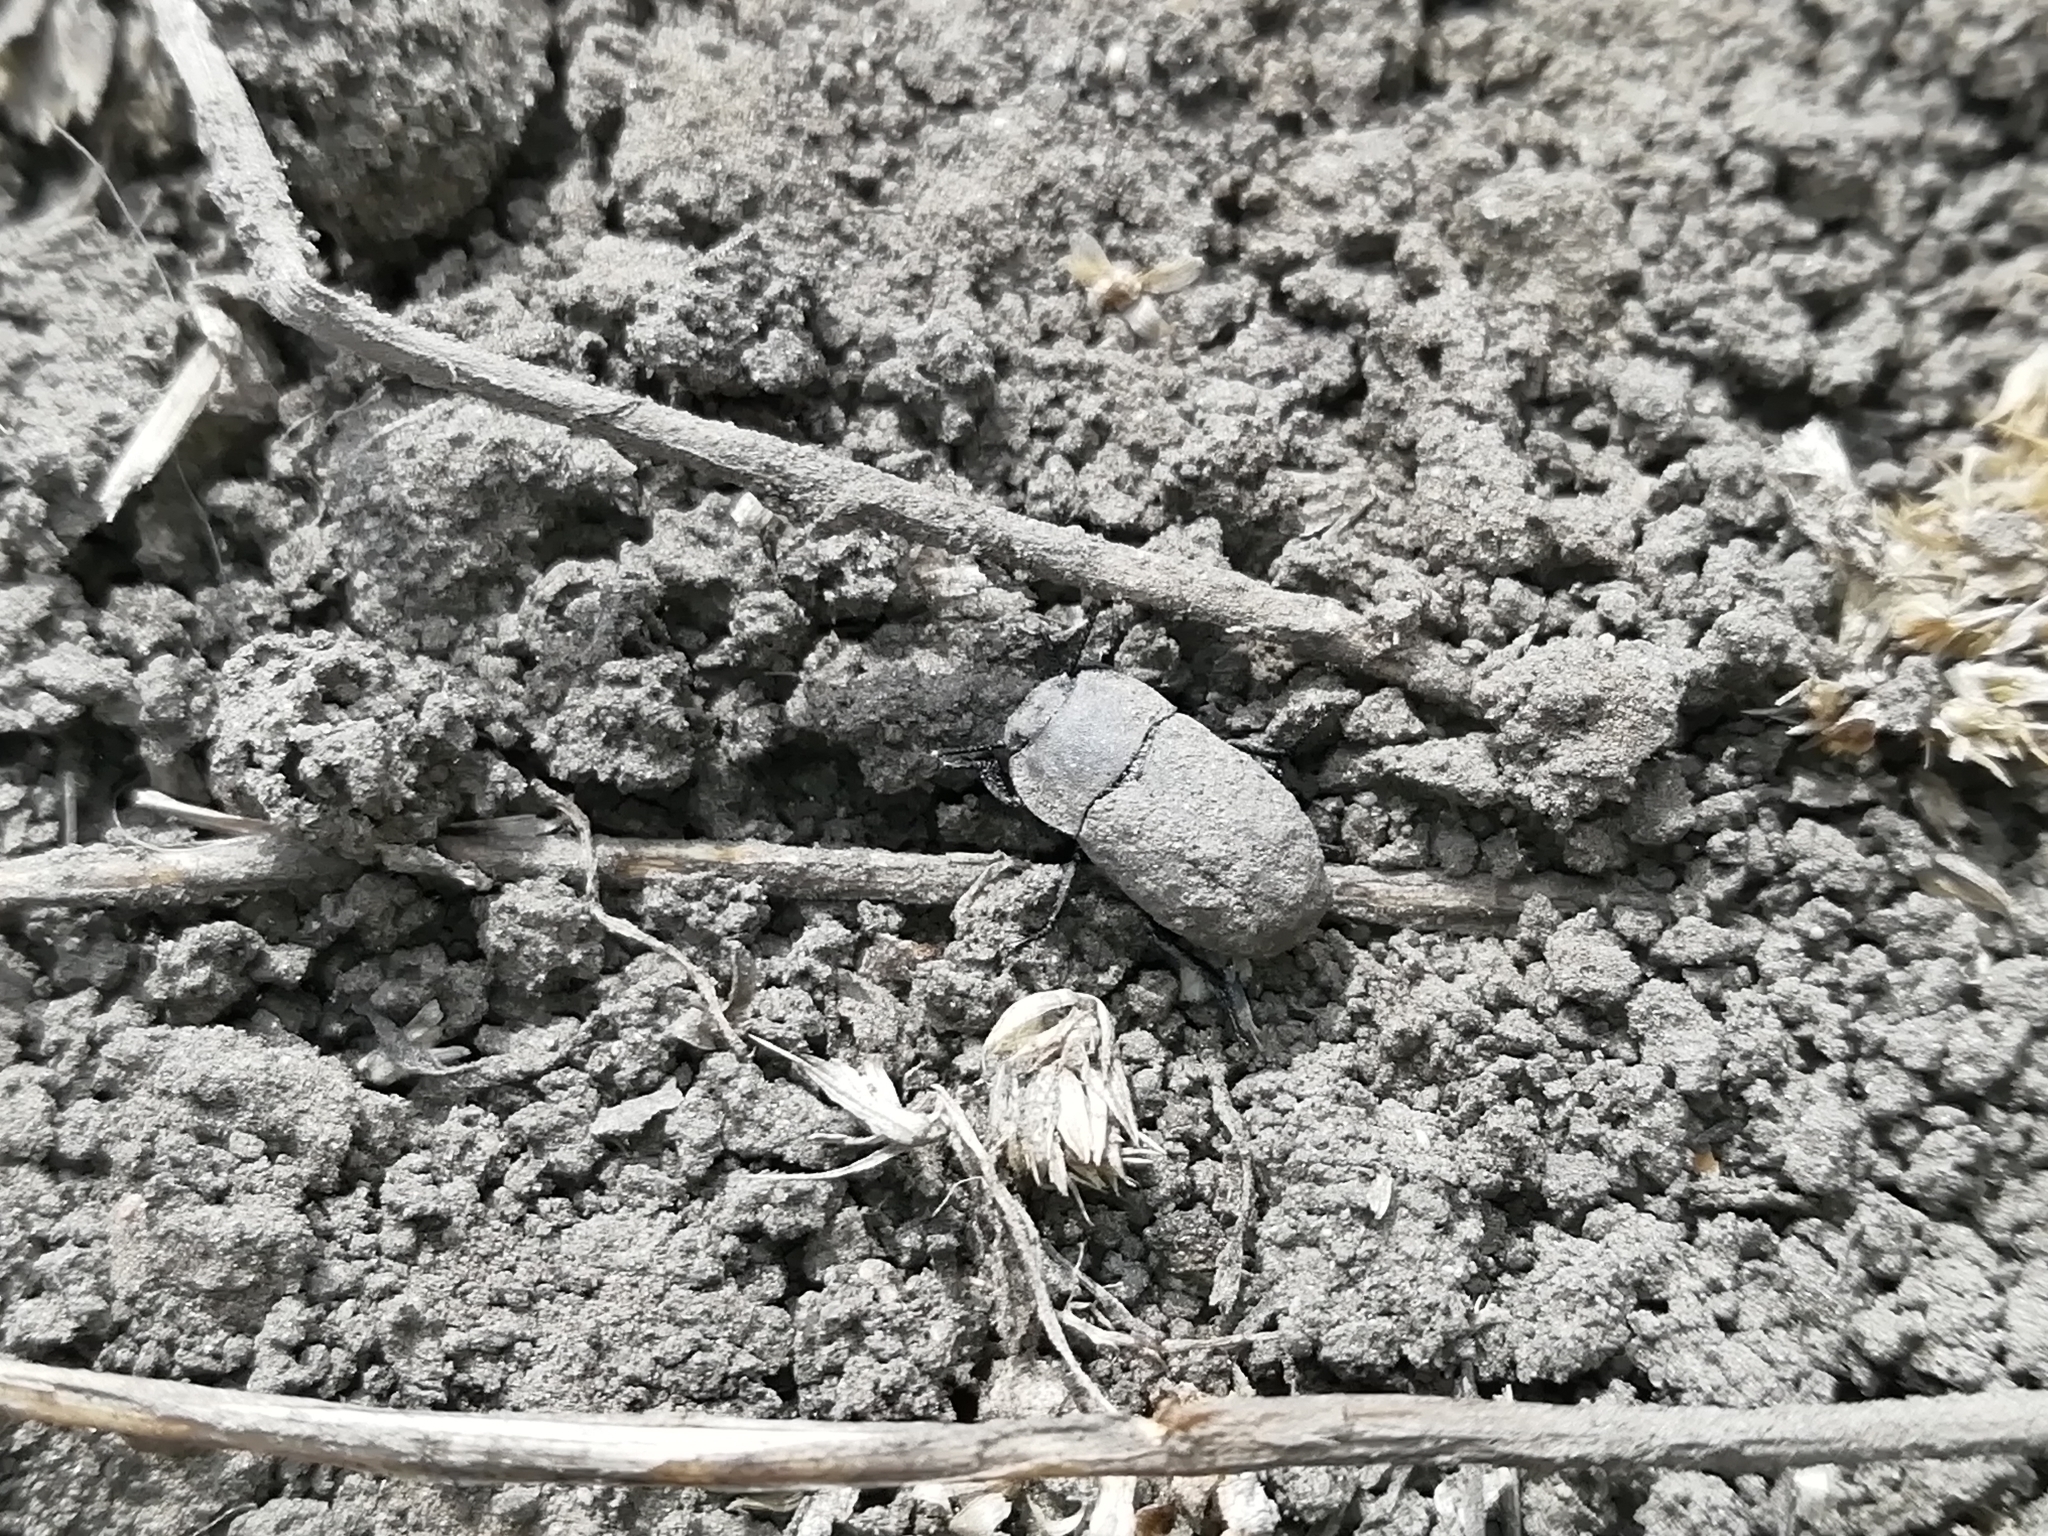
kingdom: Animalia
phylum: Arthropoda
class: Insecta
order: Coleoptera
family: Tenebrionidae
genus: Opatrum
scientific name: Opatrum sabulosum
